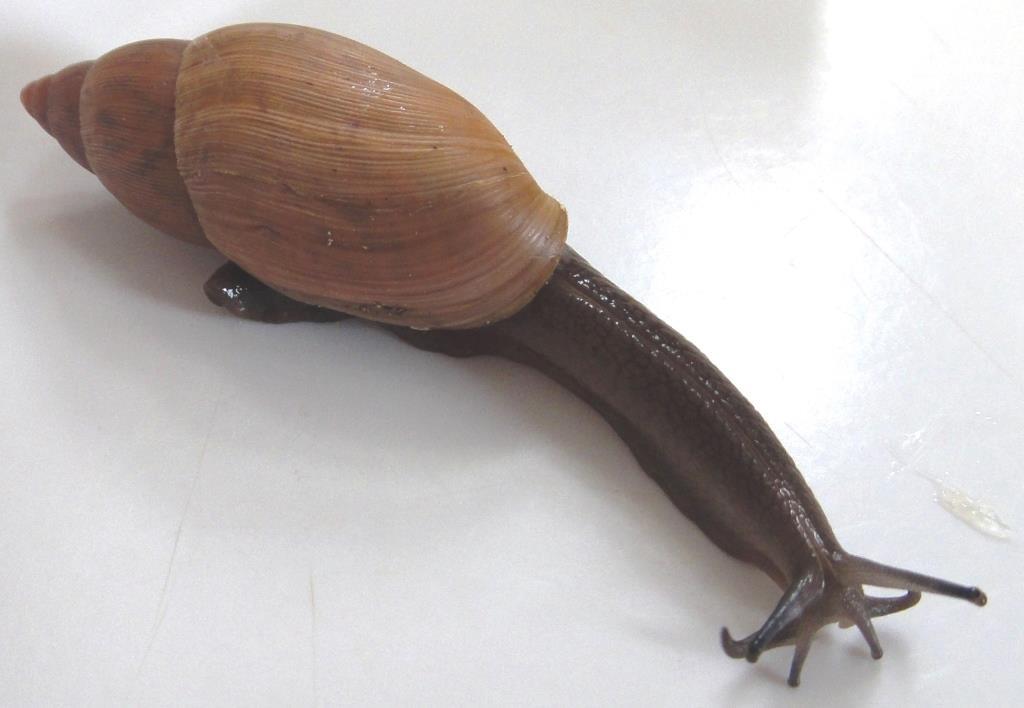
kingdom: Animalia
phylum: Mollusca
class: Gastropoda
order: Stylommatophora
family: Spiraxidae
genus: Euglandina
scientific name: Euglandina rosea
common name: Rosy wolfsnail
